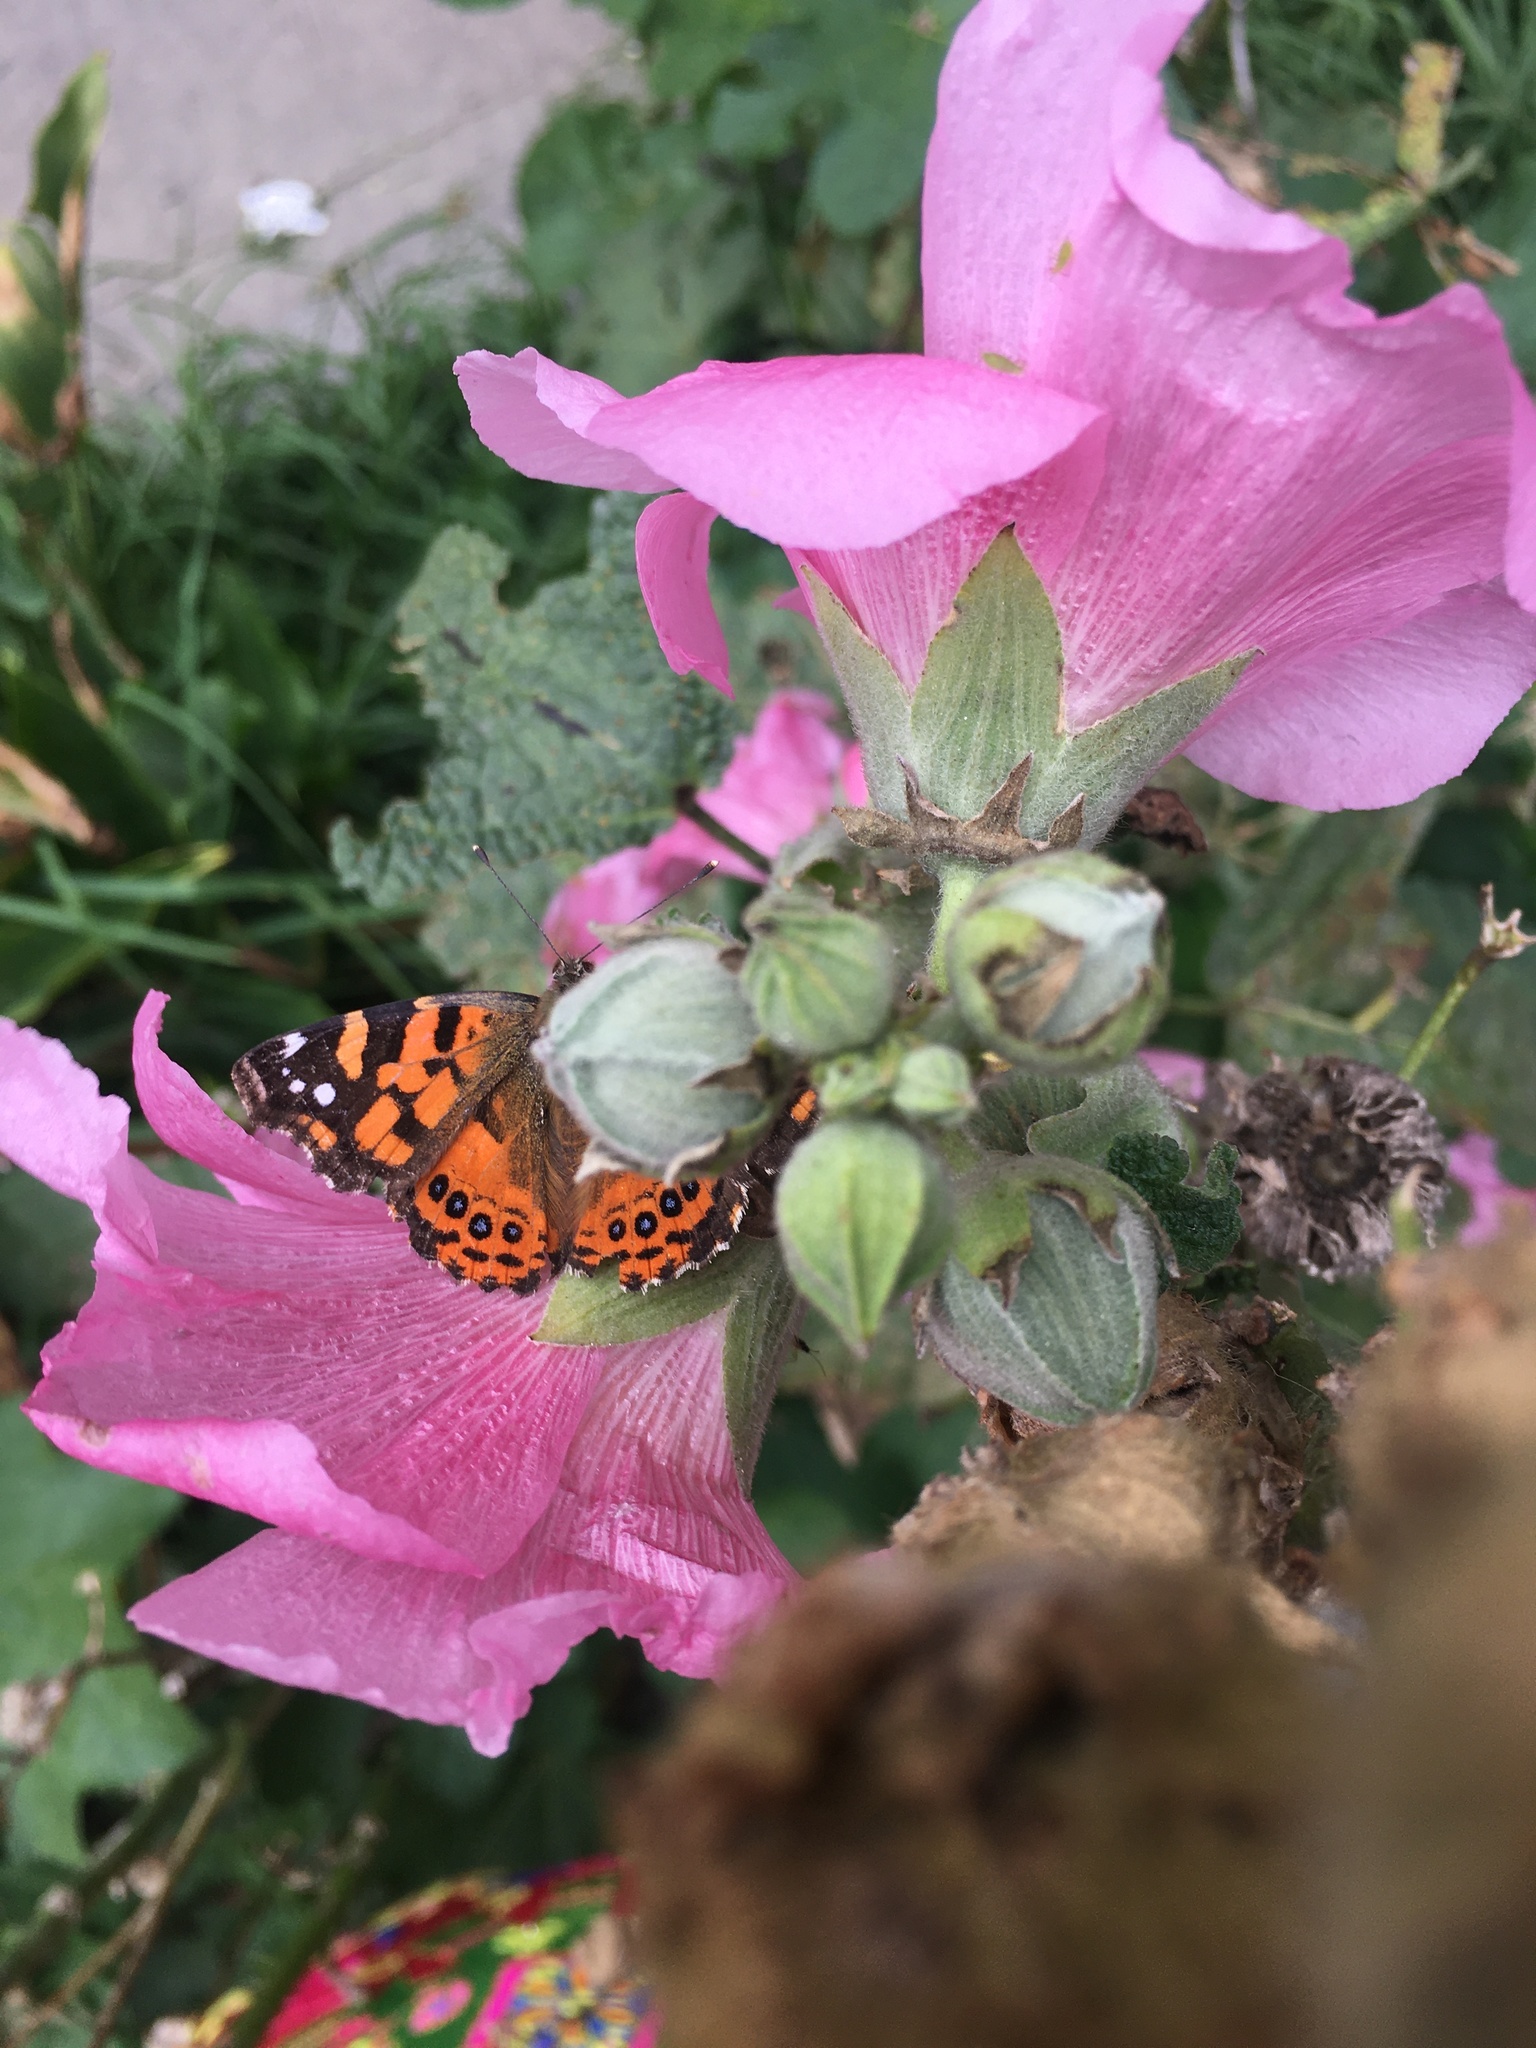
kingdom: Animalia
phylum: Arthropoda
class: Insecta
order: Lepidoptera
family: Nymphalidae
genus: Vanessa
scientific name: Vanessa carye
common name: Subtropical lady
